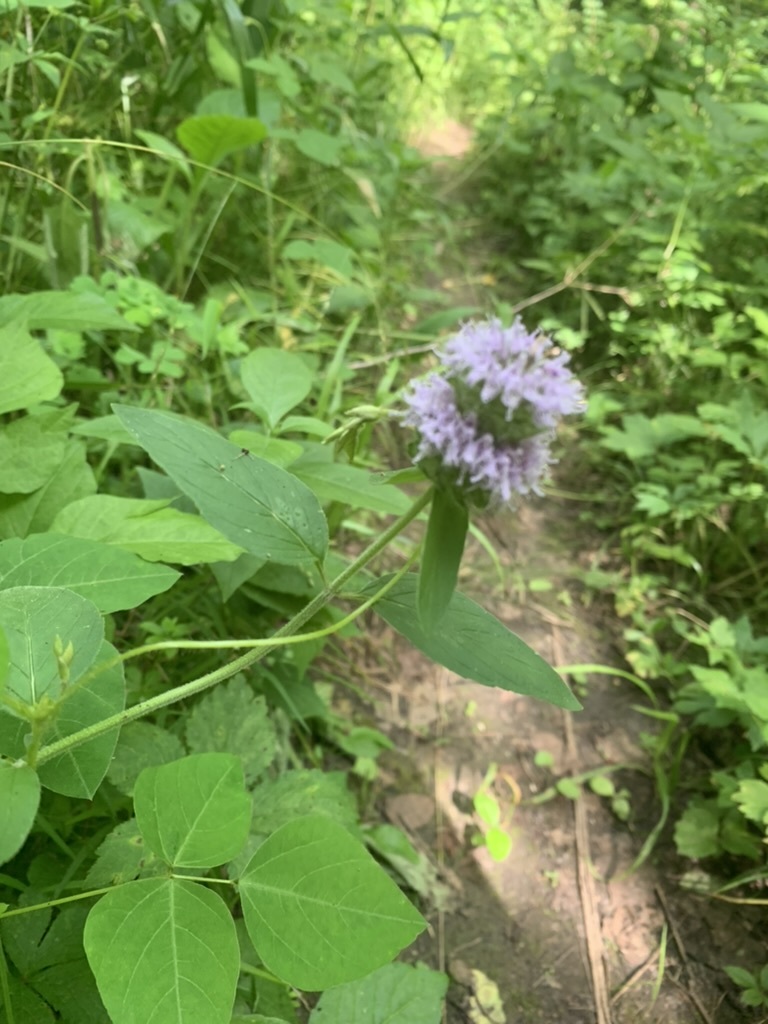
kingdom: Plantae
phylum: Tracheophyta
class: Magnoliopsida
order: Lamiales
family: Lamiaceae
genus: Blephilia
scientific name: Blephilia ciliata
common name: Downy blephilia
